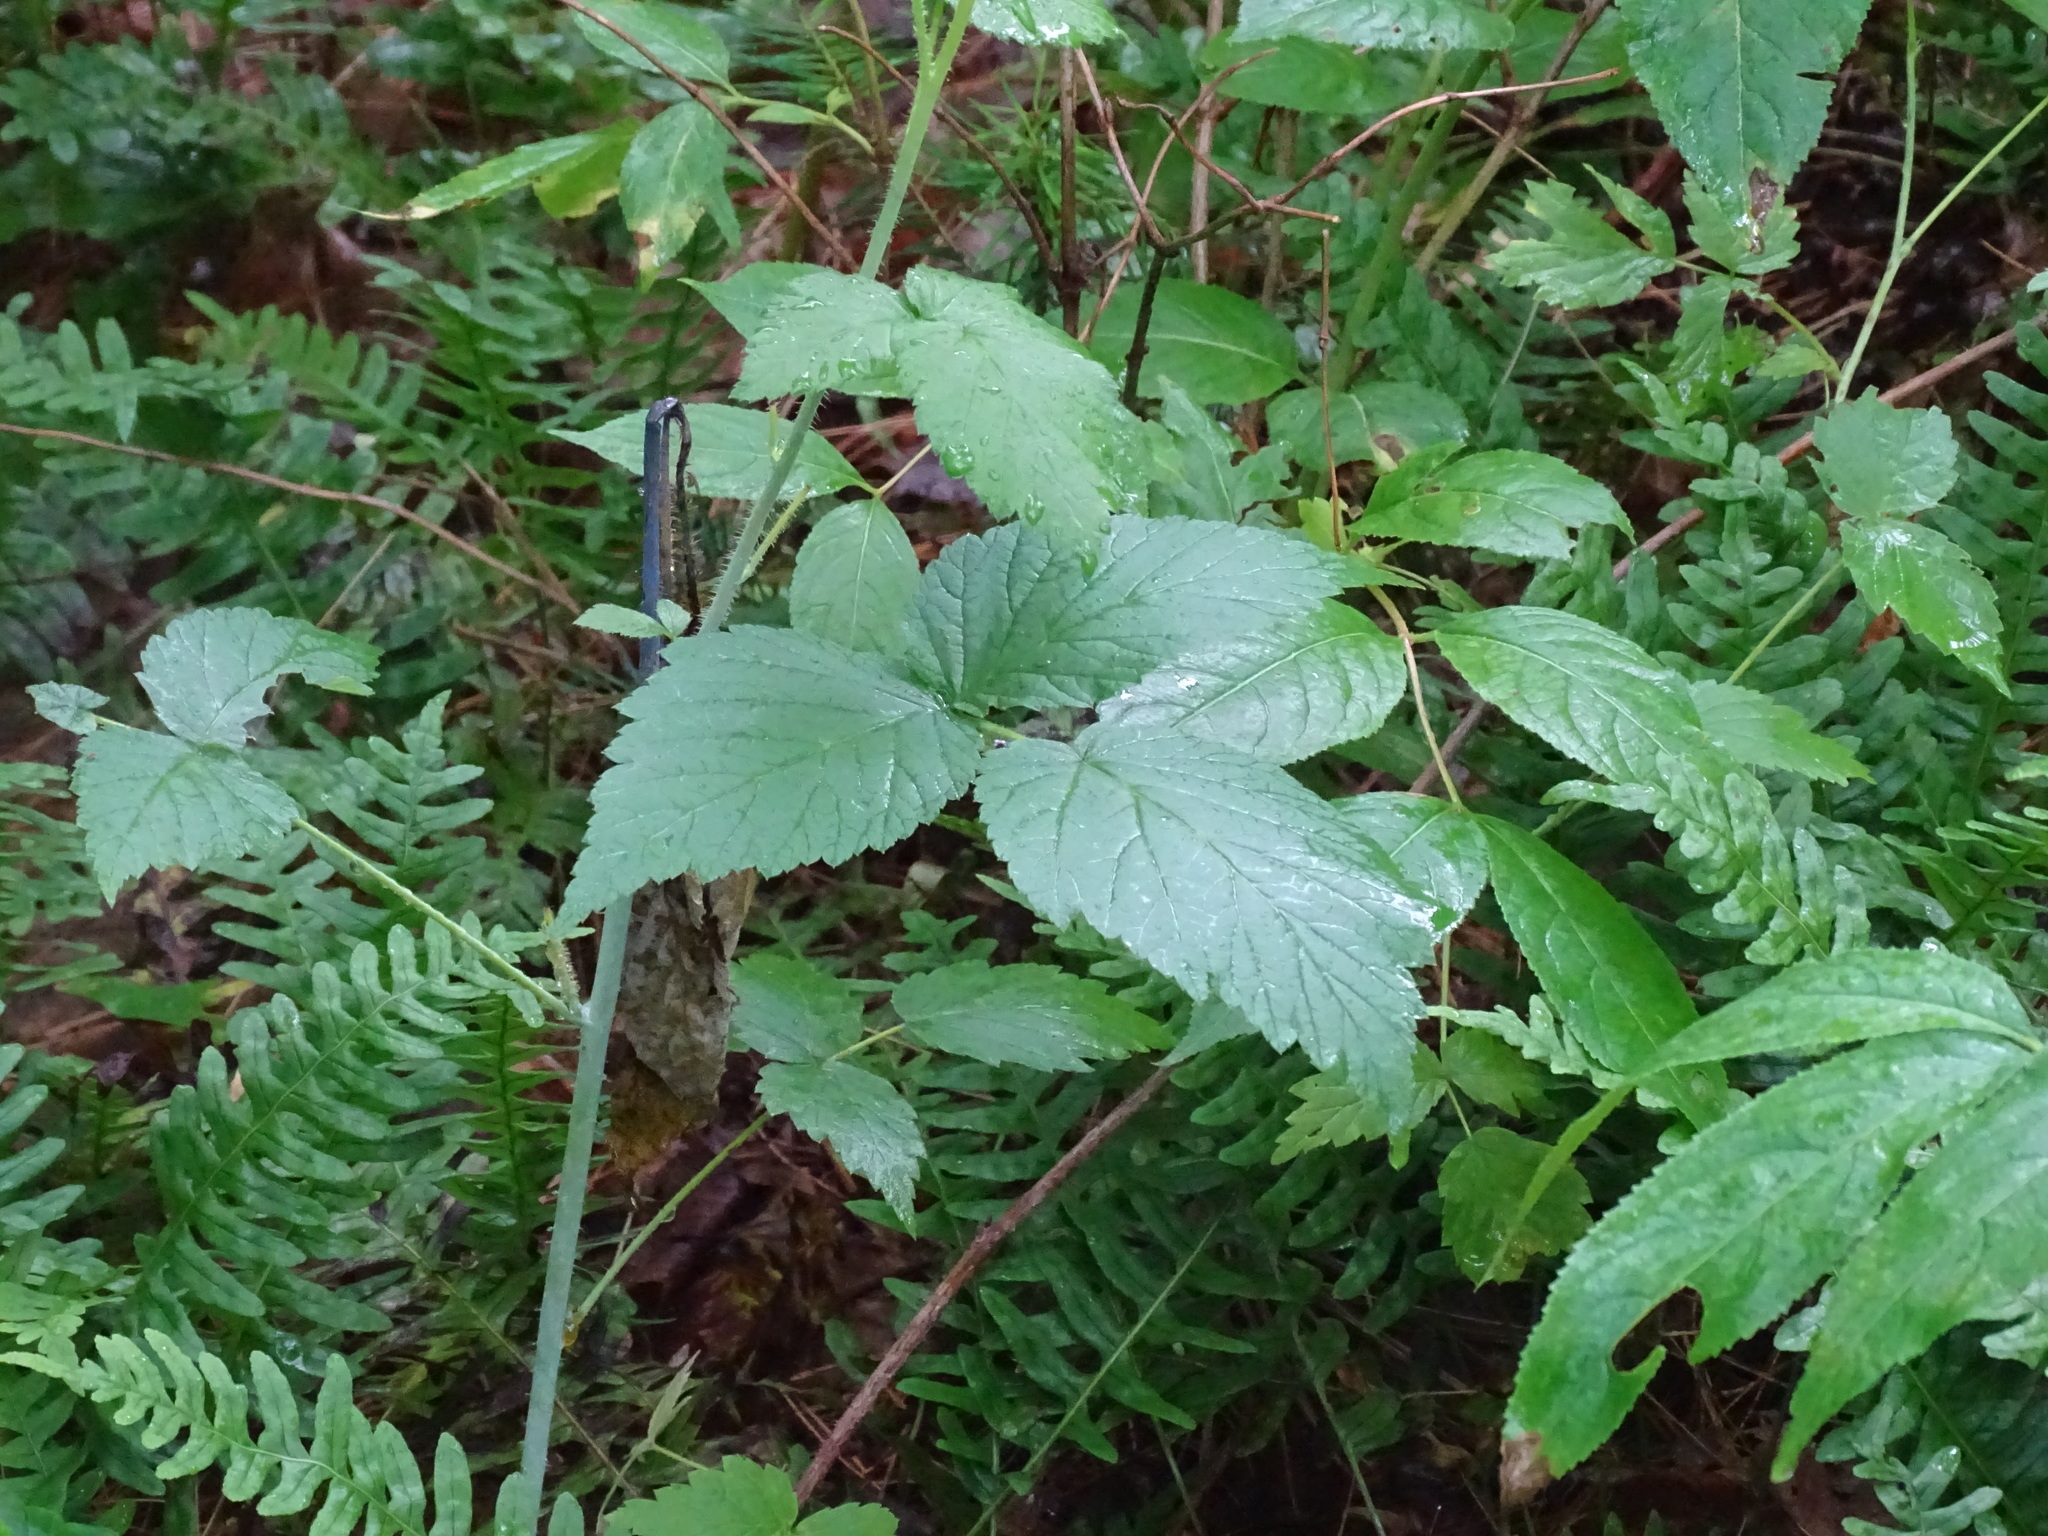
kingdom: Plantae
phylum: Tracheophyta
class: Polypodiopsida
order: Polypodiales
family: Polypodiaceae
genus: Polypodium
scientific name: Polypodium virginianum
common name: American wall fern
